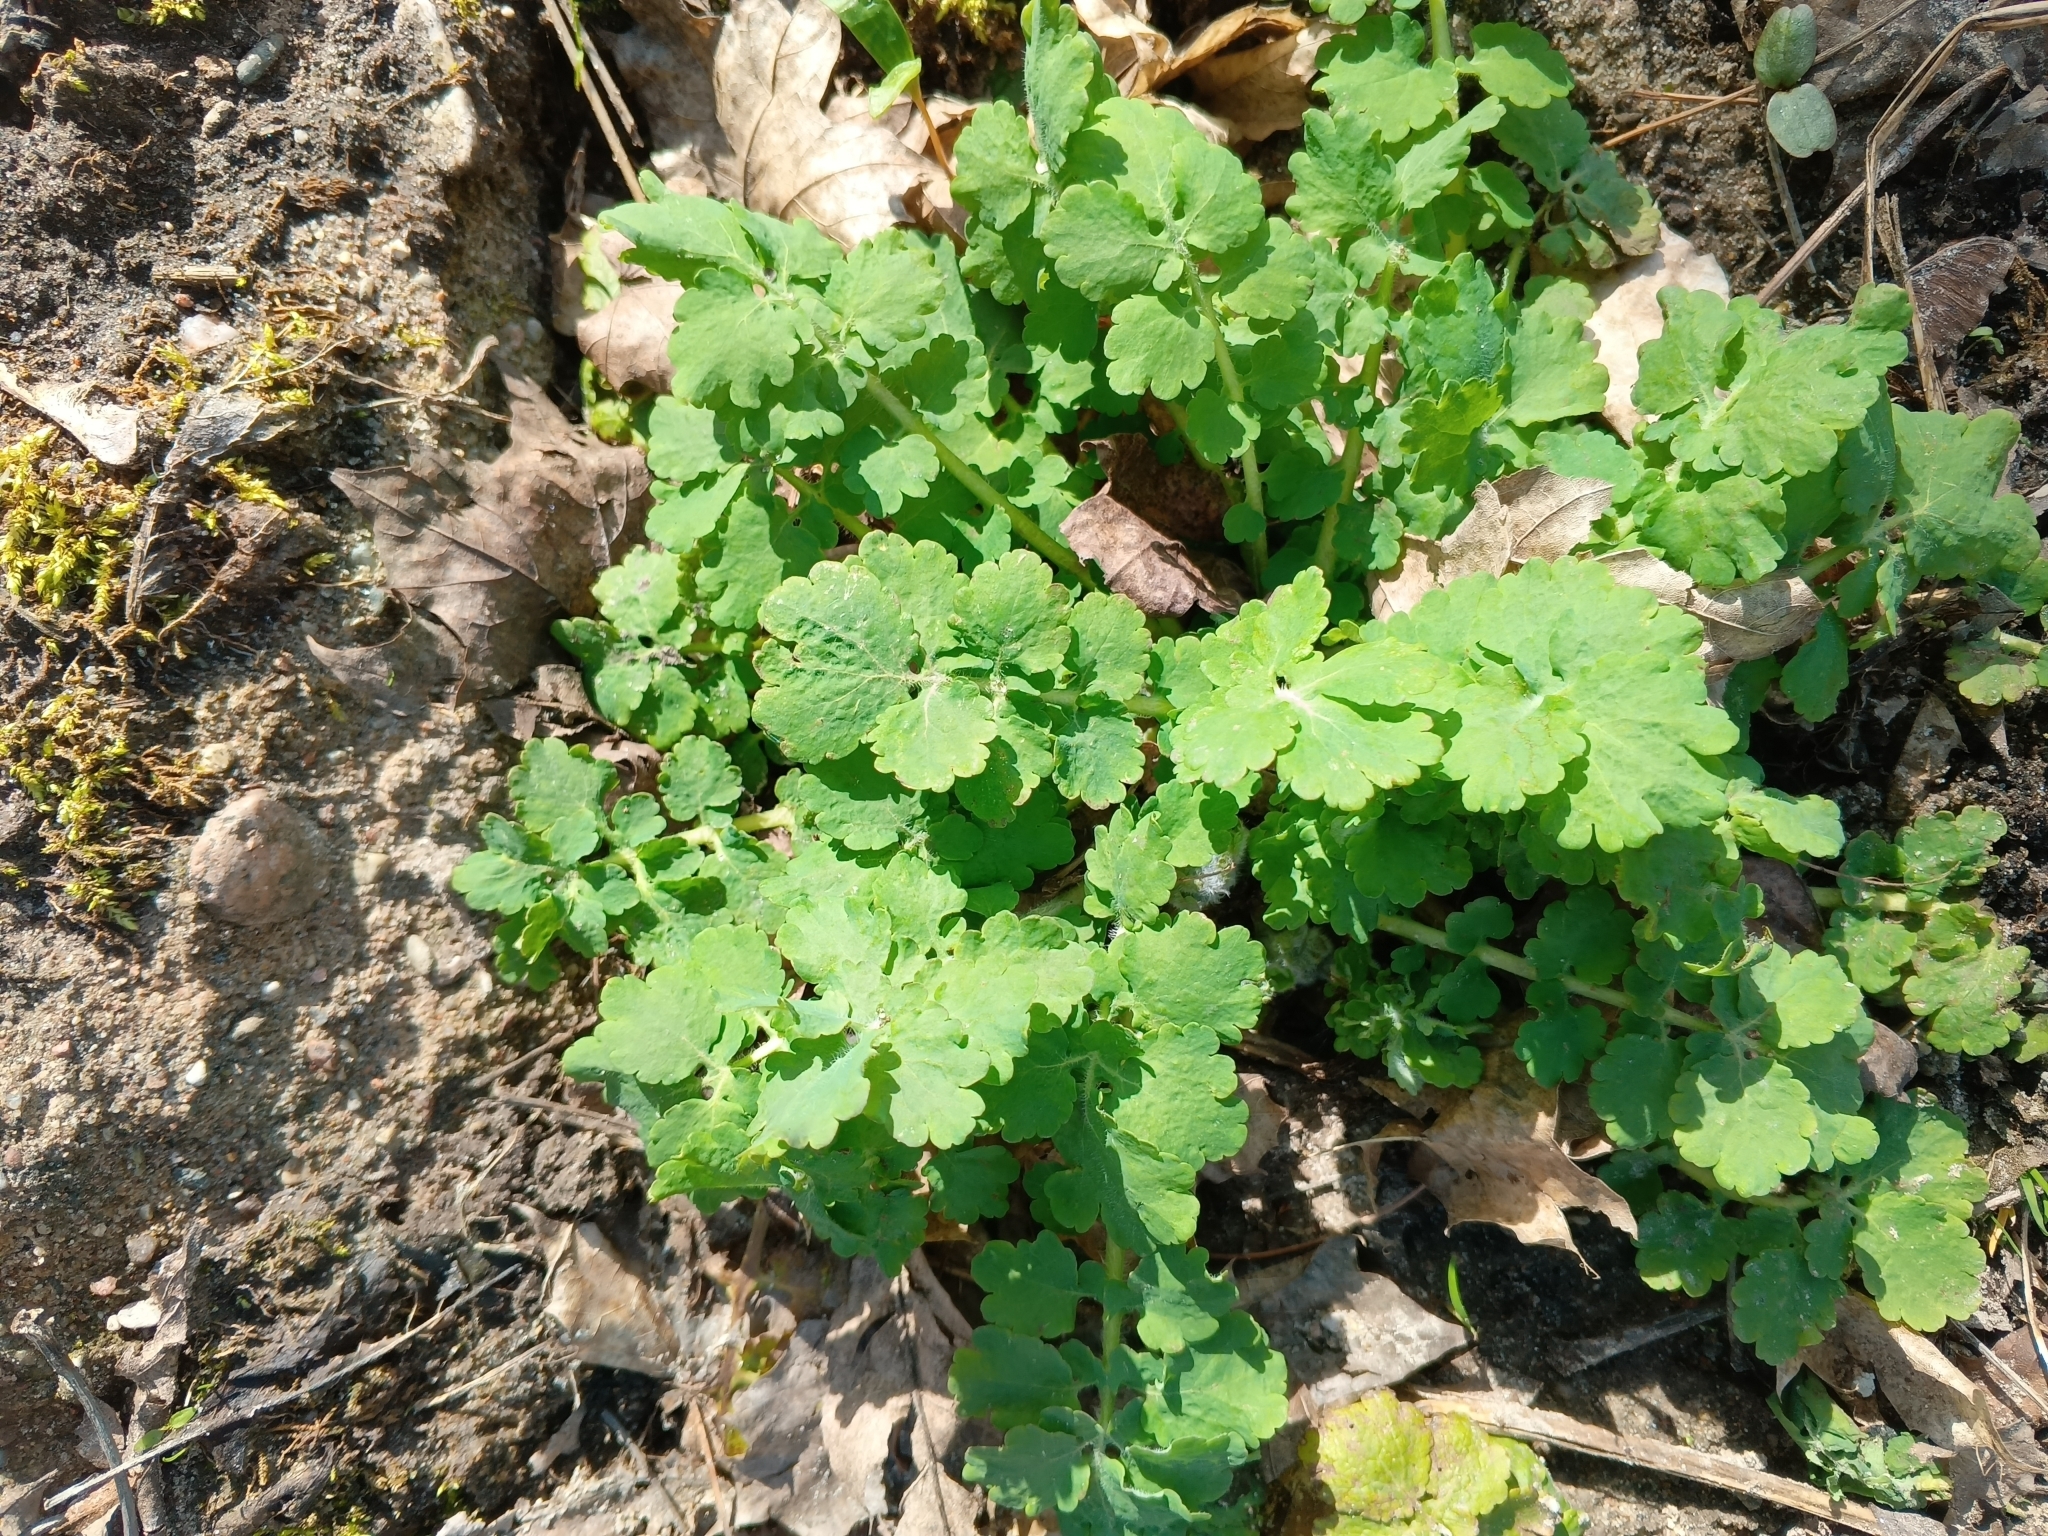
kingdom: Plantae
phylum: Tracheophyta
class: Magnoliopsida
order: Ranunculales
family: Papaveraceae
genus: Chelidonium
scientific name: Chelidonium majus
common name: Greater celandine
